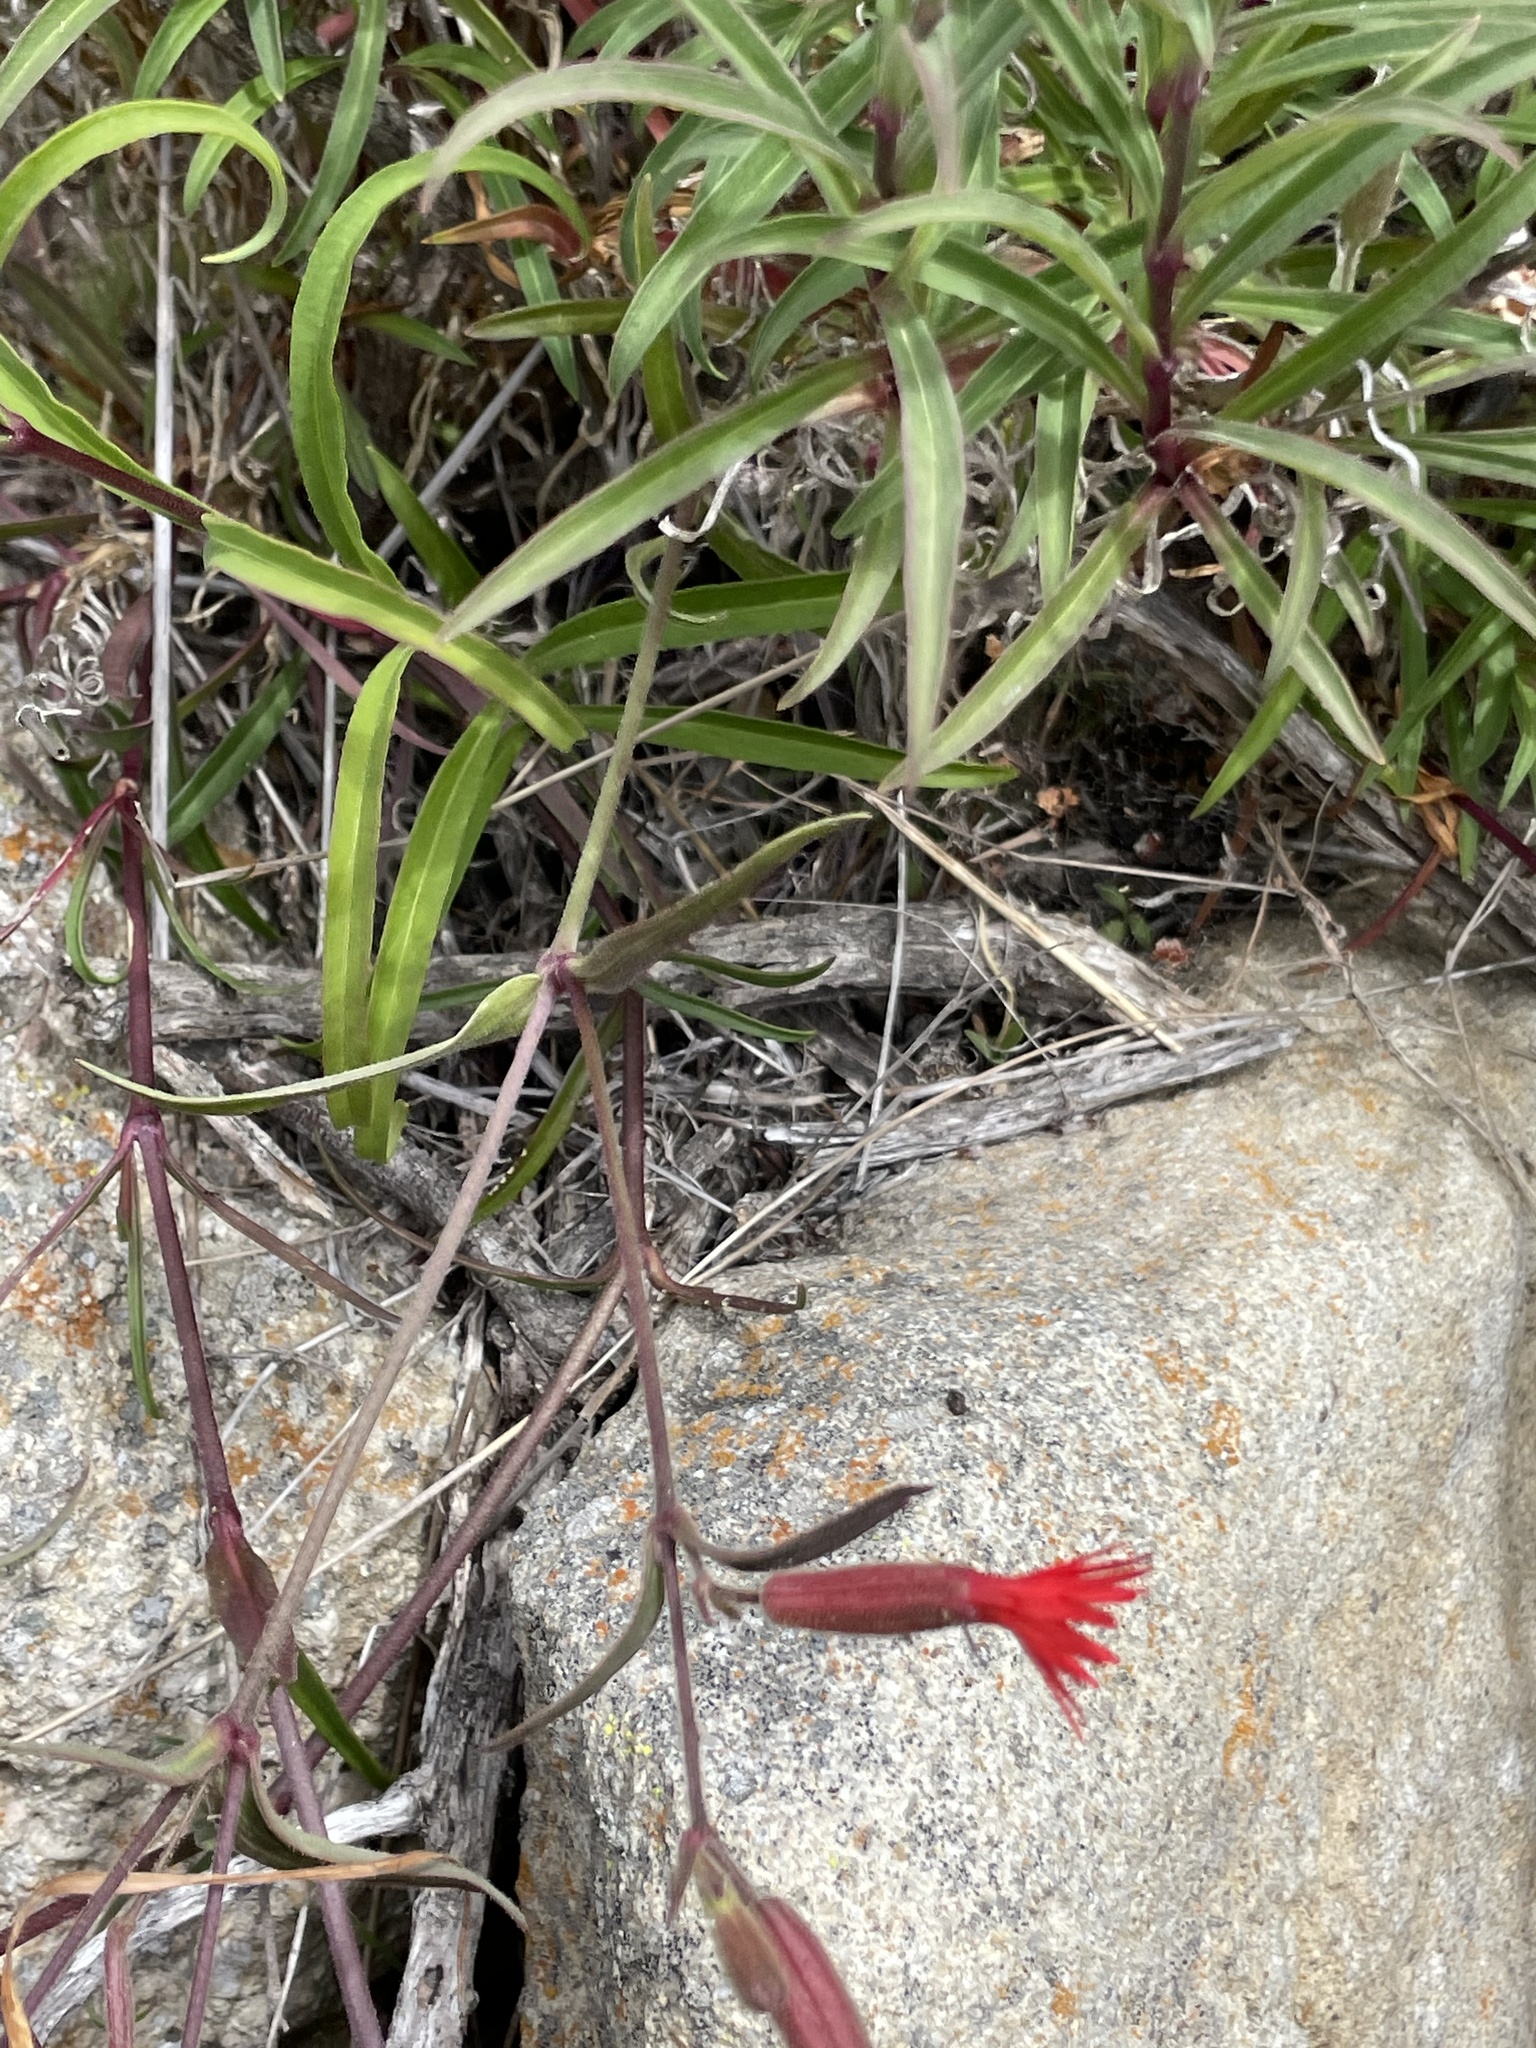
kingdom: Plantae
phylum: Tracheophyta
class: Magnoliopsida
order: Caryophyllales
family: Caryophyllaceae
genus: Silene
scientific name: Silene laciniata
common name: Indian-pink
